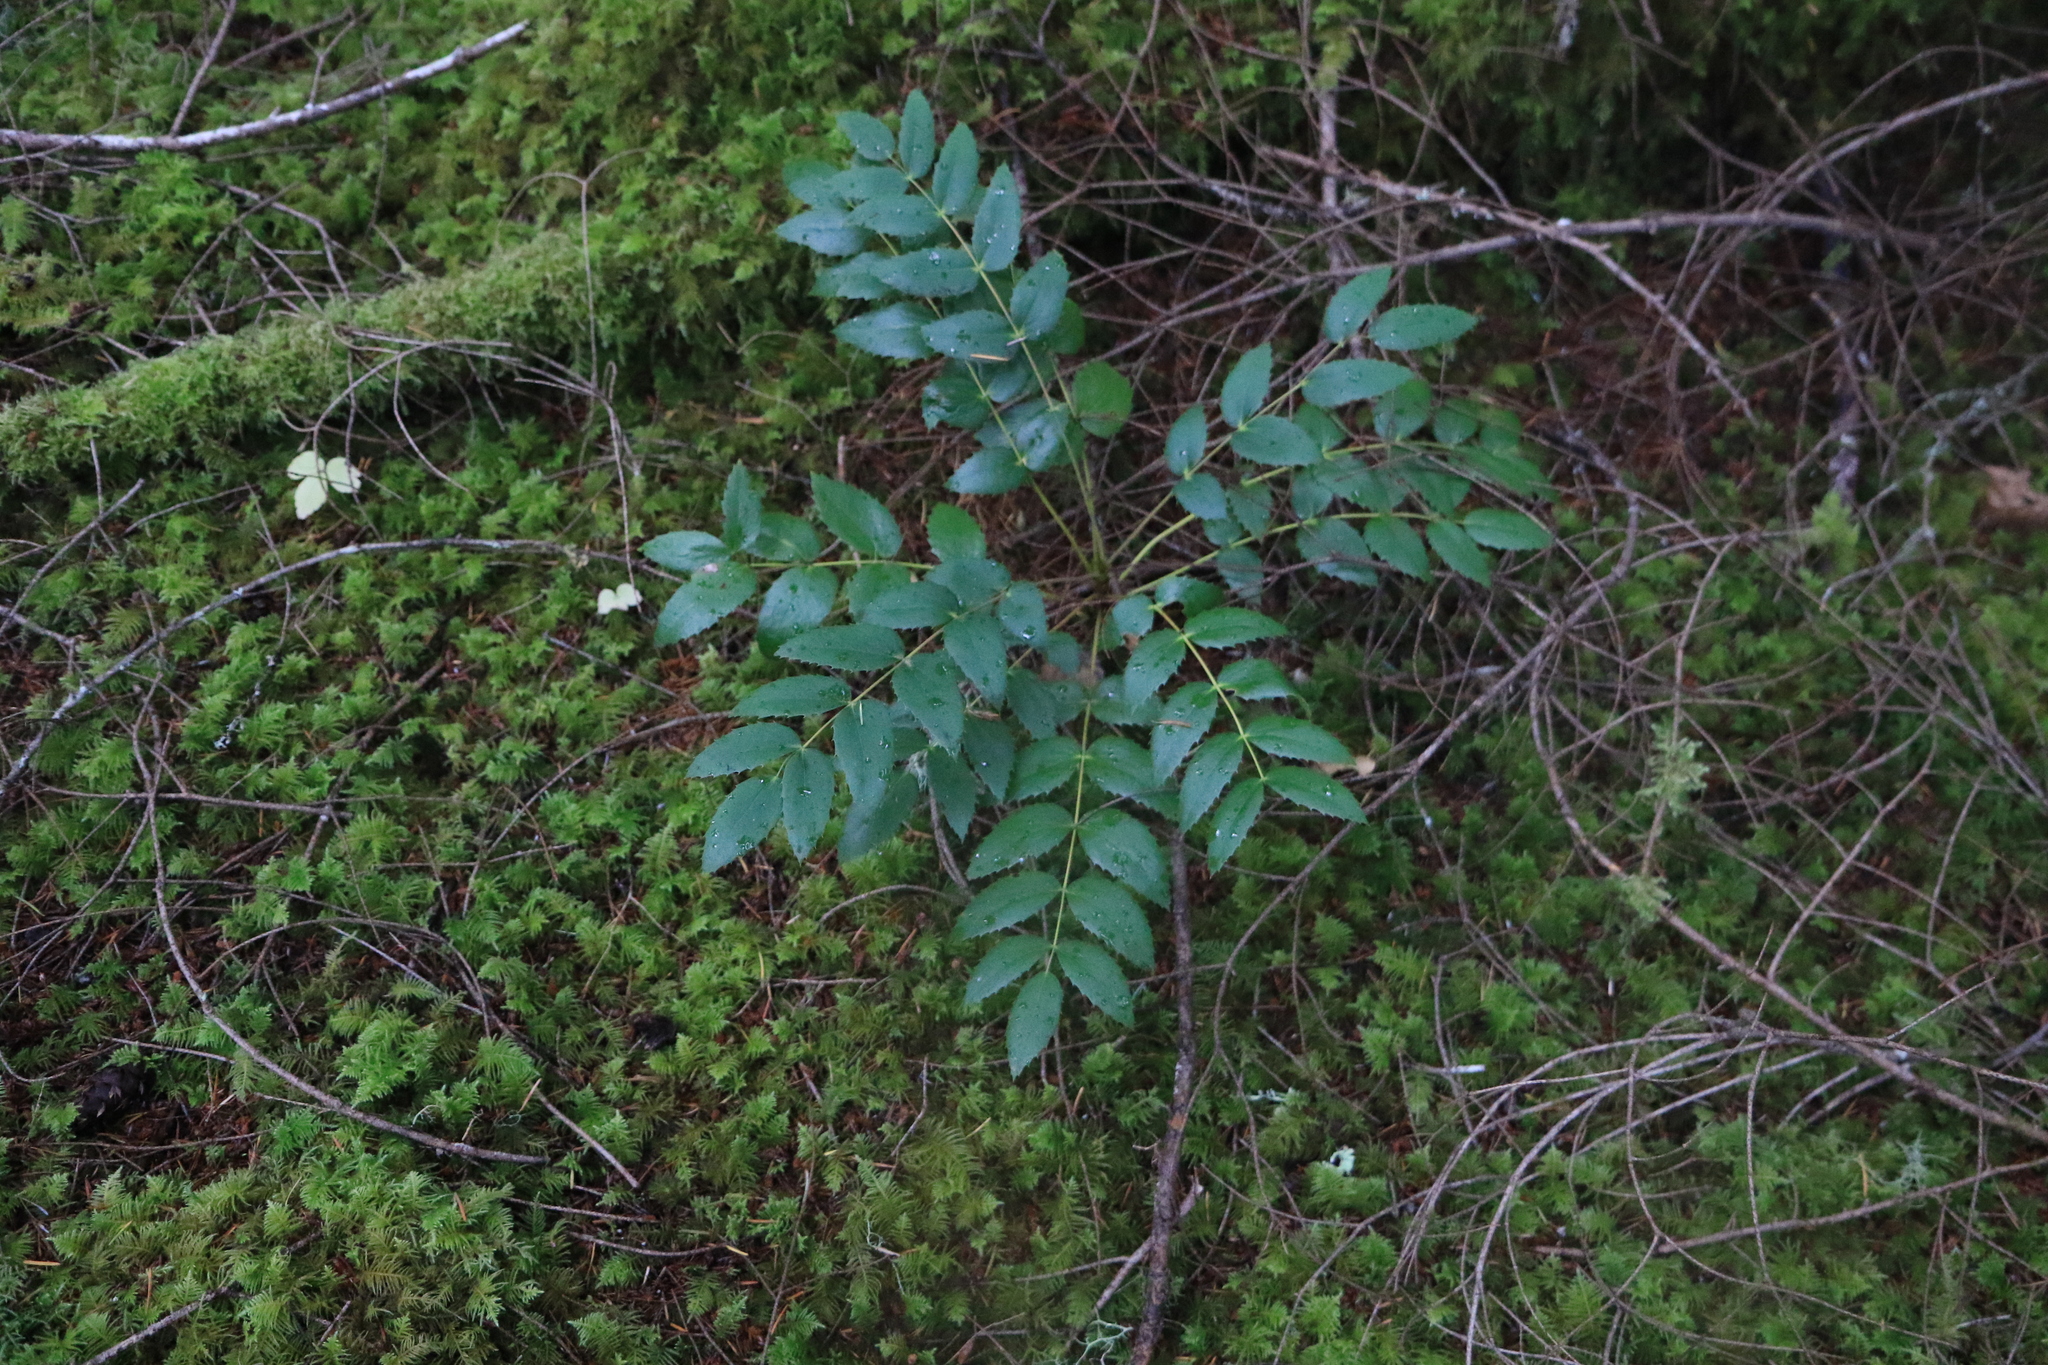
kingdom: Plantae
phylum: Tracheophyta
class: Magnoliopsida
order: Ranunculales
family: Berberidaceae
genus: Mahonia
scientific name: Mahonia nervosa
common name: Cascade oregon-grape
